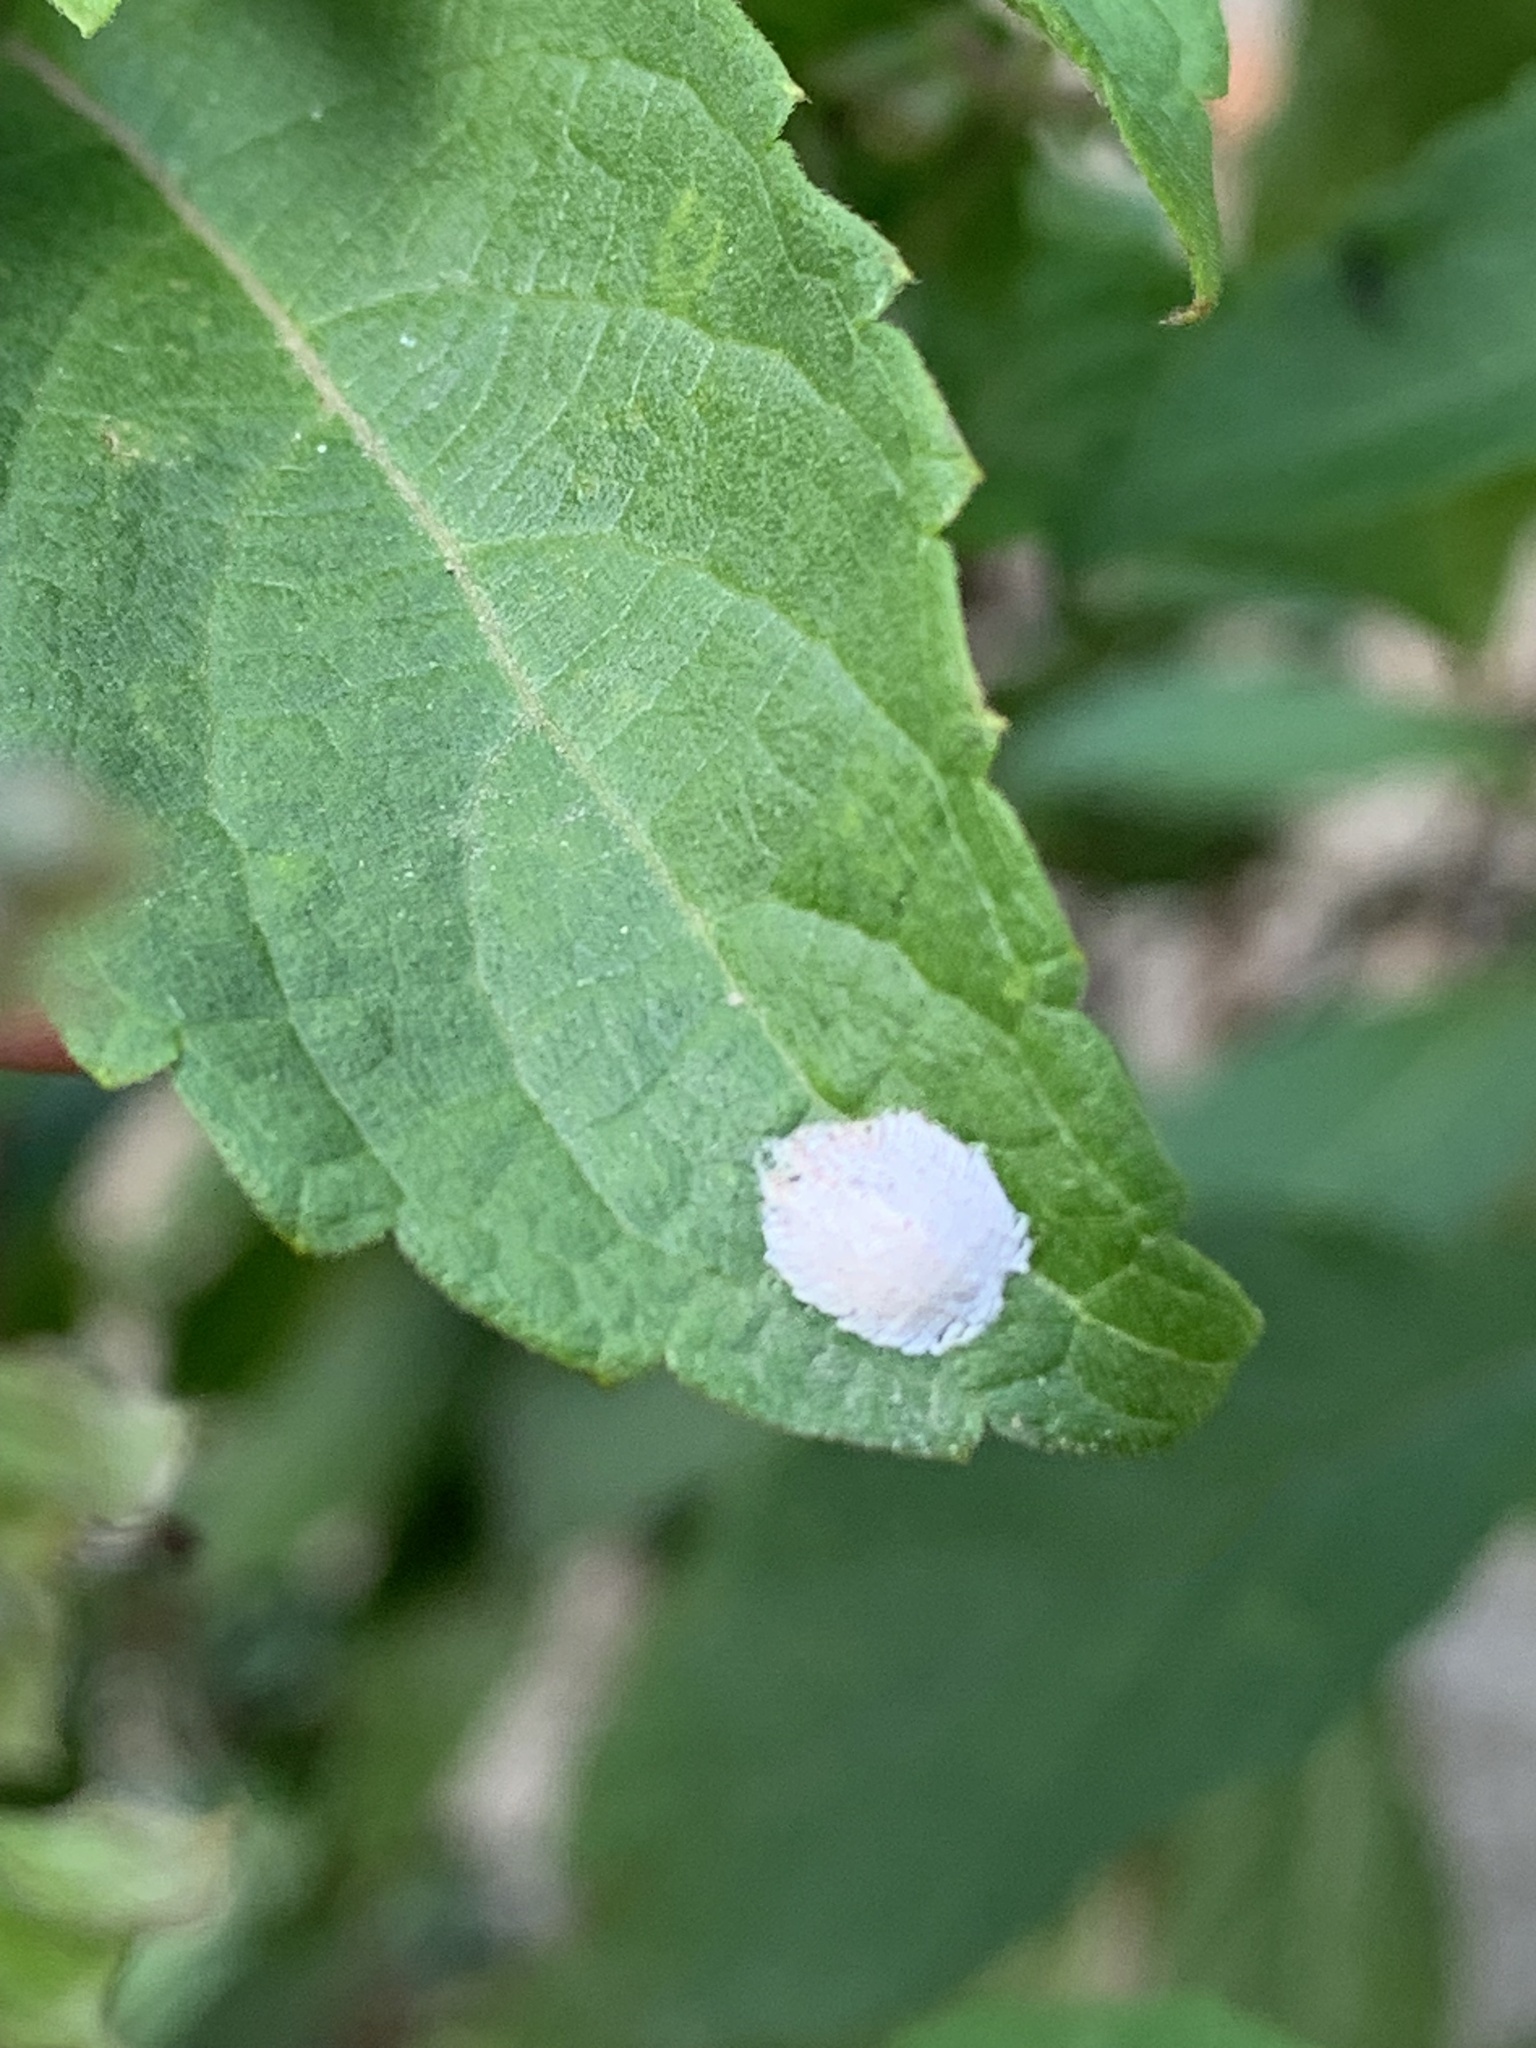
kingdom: Animalia
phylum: Arthropoda
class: Insecta
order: Hemiptera
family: Margarodidae
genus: Icerya
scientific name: Icerya purchasi
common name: Cottony cushion scale
